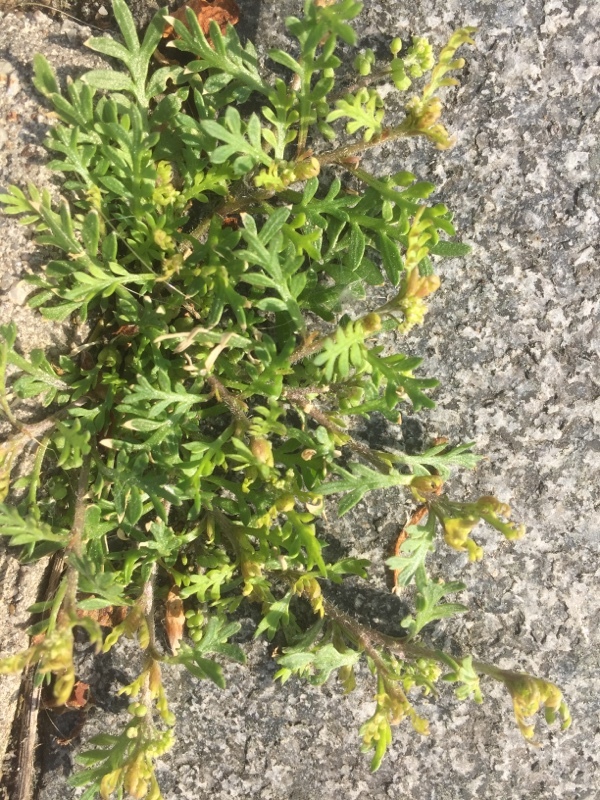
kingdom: Plantae
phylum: Tracheophyta
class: Magnoliopsida
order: Brassicales
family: Brassicaceae
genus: Lepidium
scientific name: Lepidium didymum
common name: Lesser swinecress
